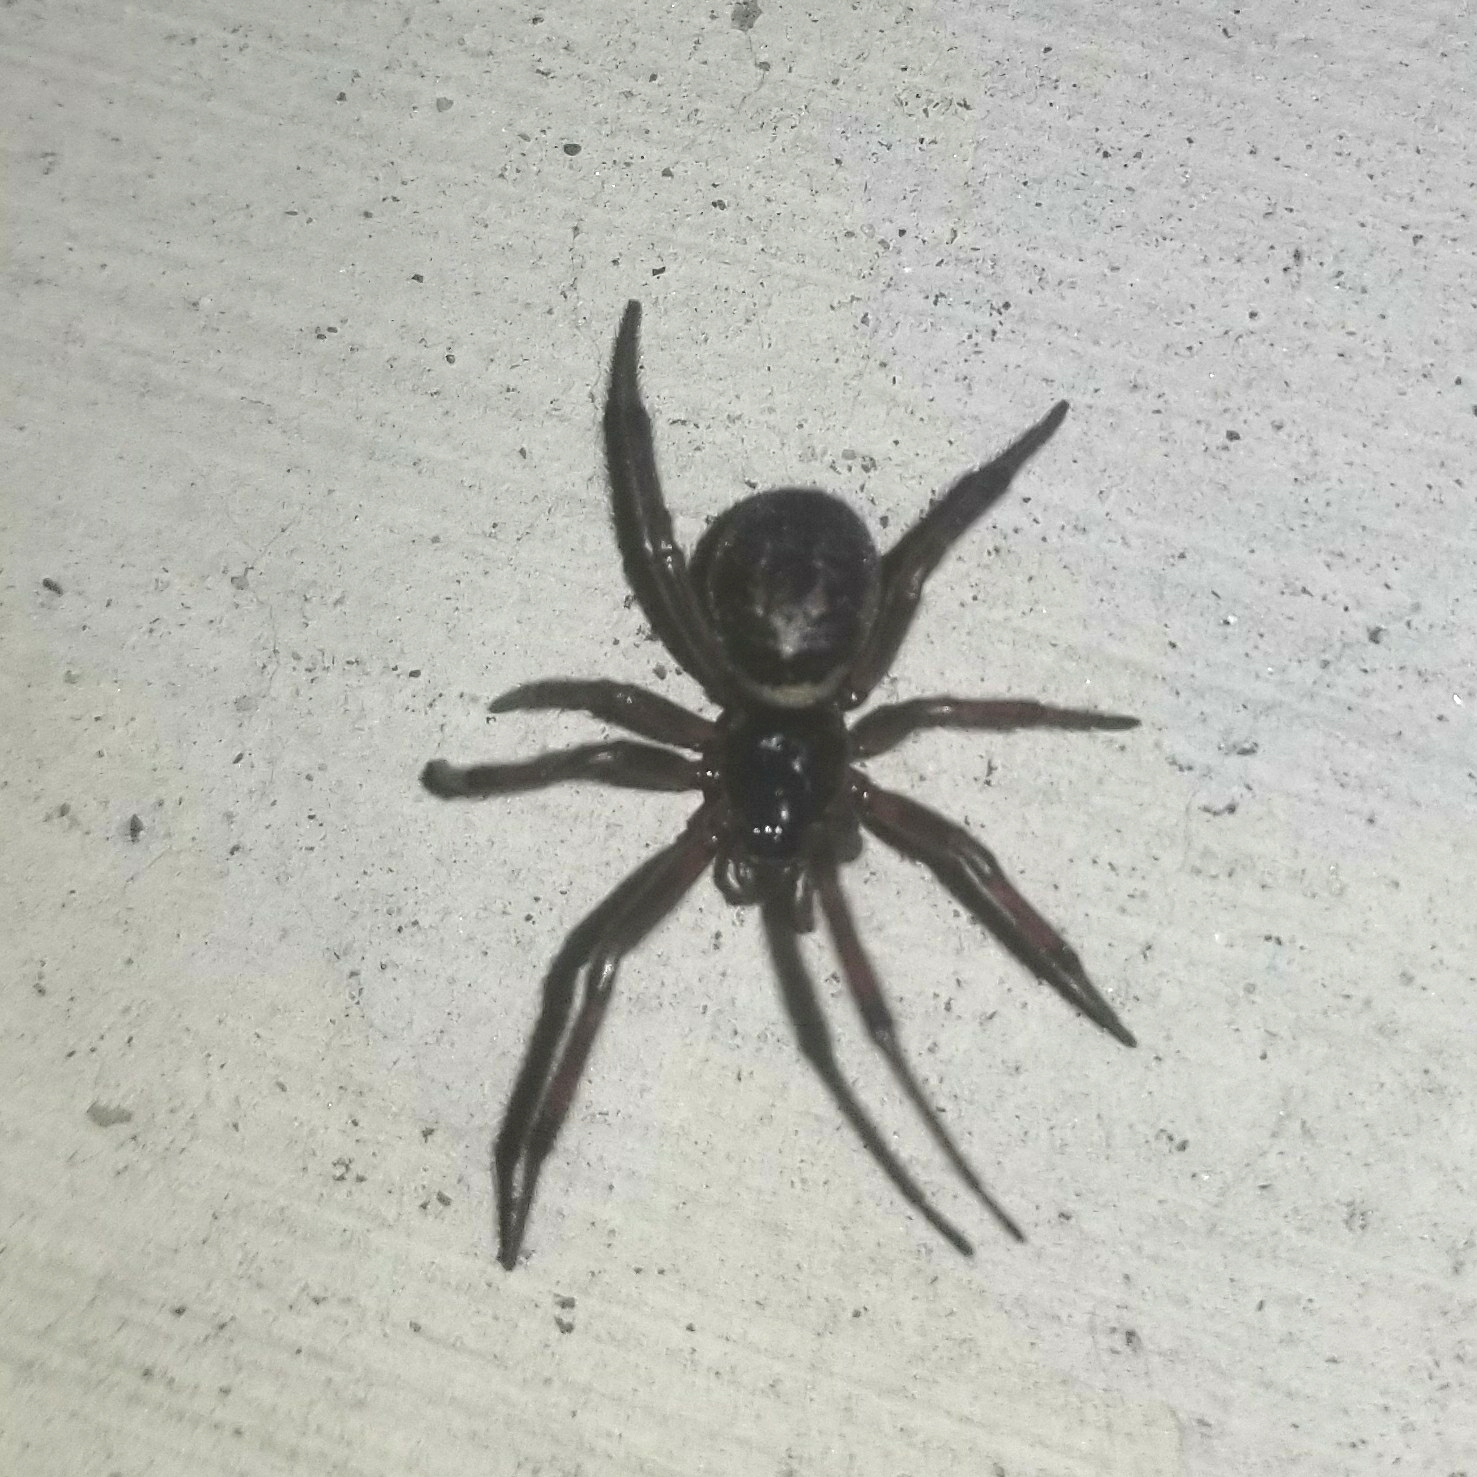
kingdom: Animalia
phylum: Arthropoda
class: Arachnida
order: Araneae
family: Theridiidae
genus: Steatoda
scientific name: Steatoda nobilis
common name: Cobweb weaver
